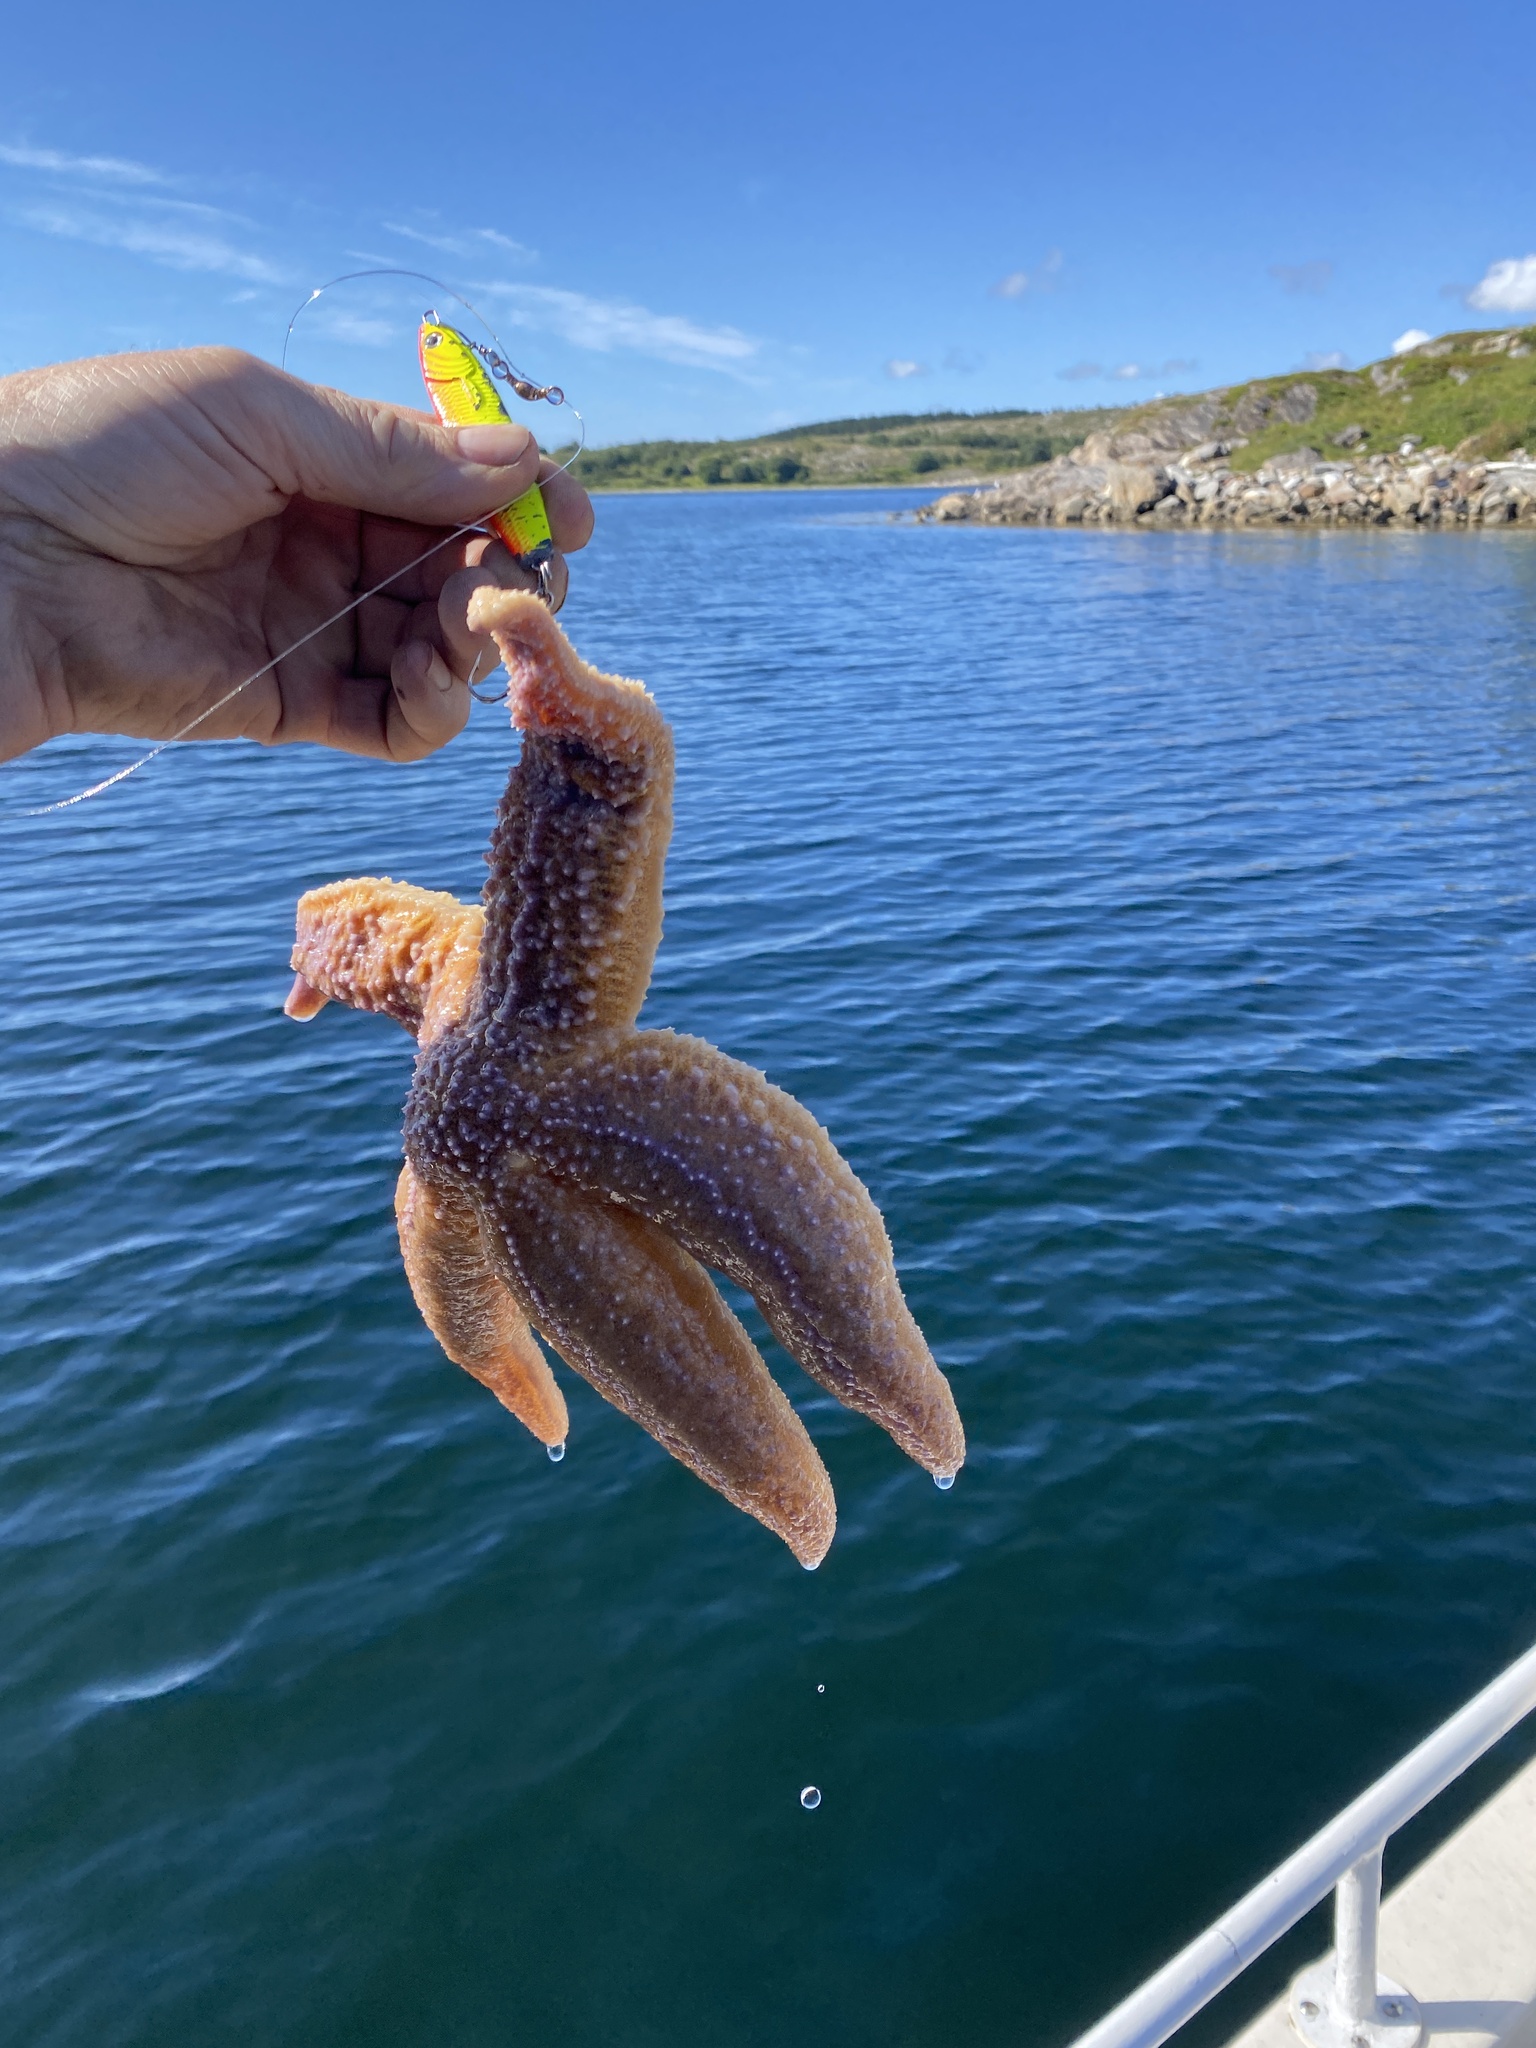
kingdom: Animalia
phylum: Echinodermata
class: Asteroidea
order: Forcipulatida
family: Asteriidae
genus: Asterias
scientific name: Asterias rubens
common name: Common starfish
